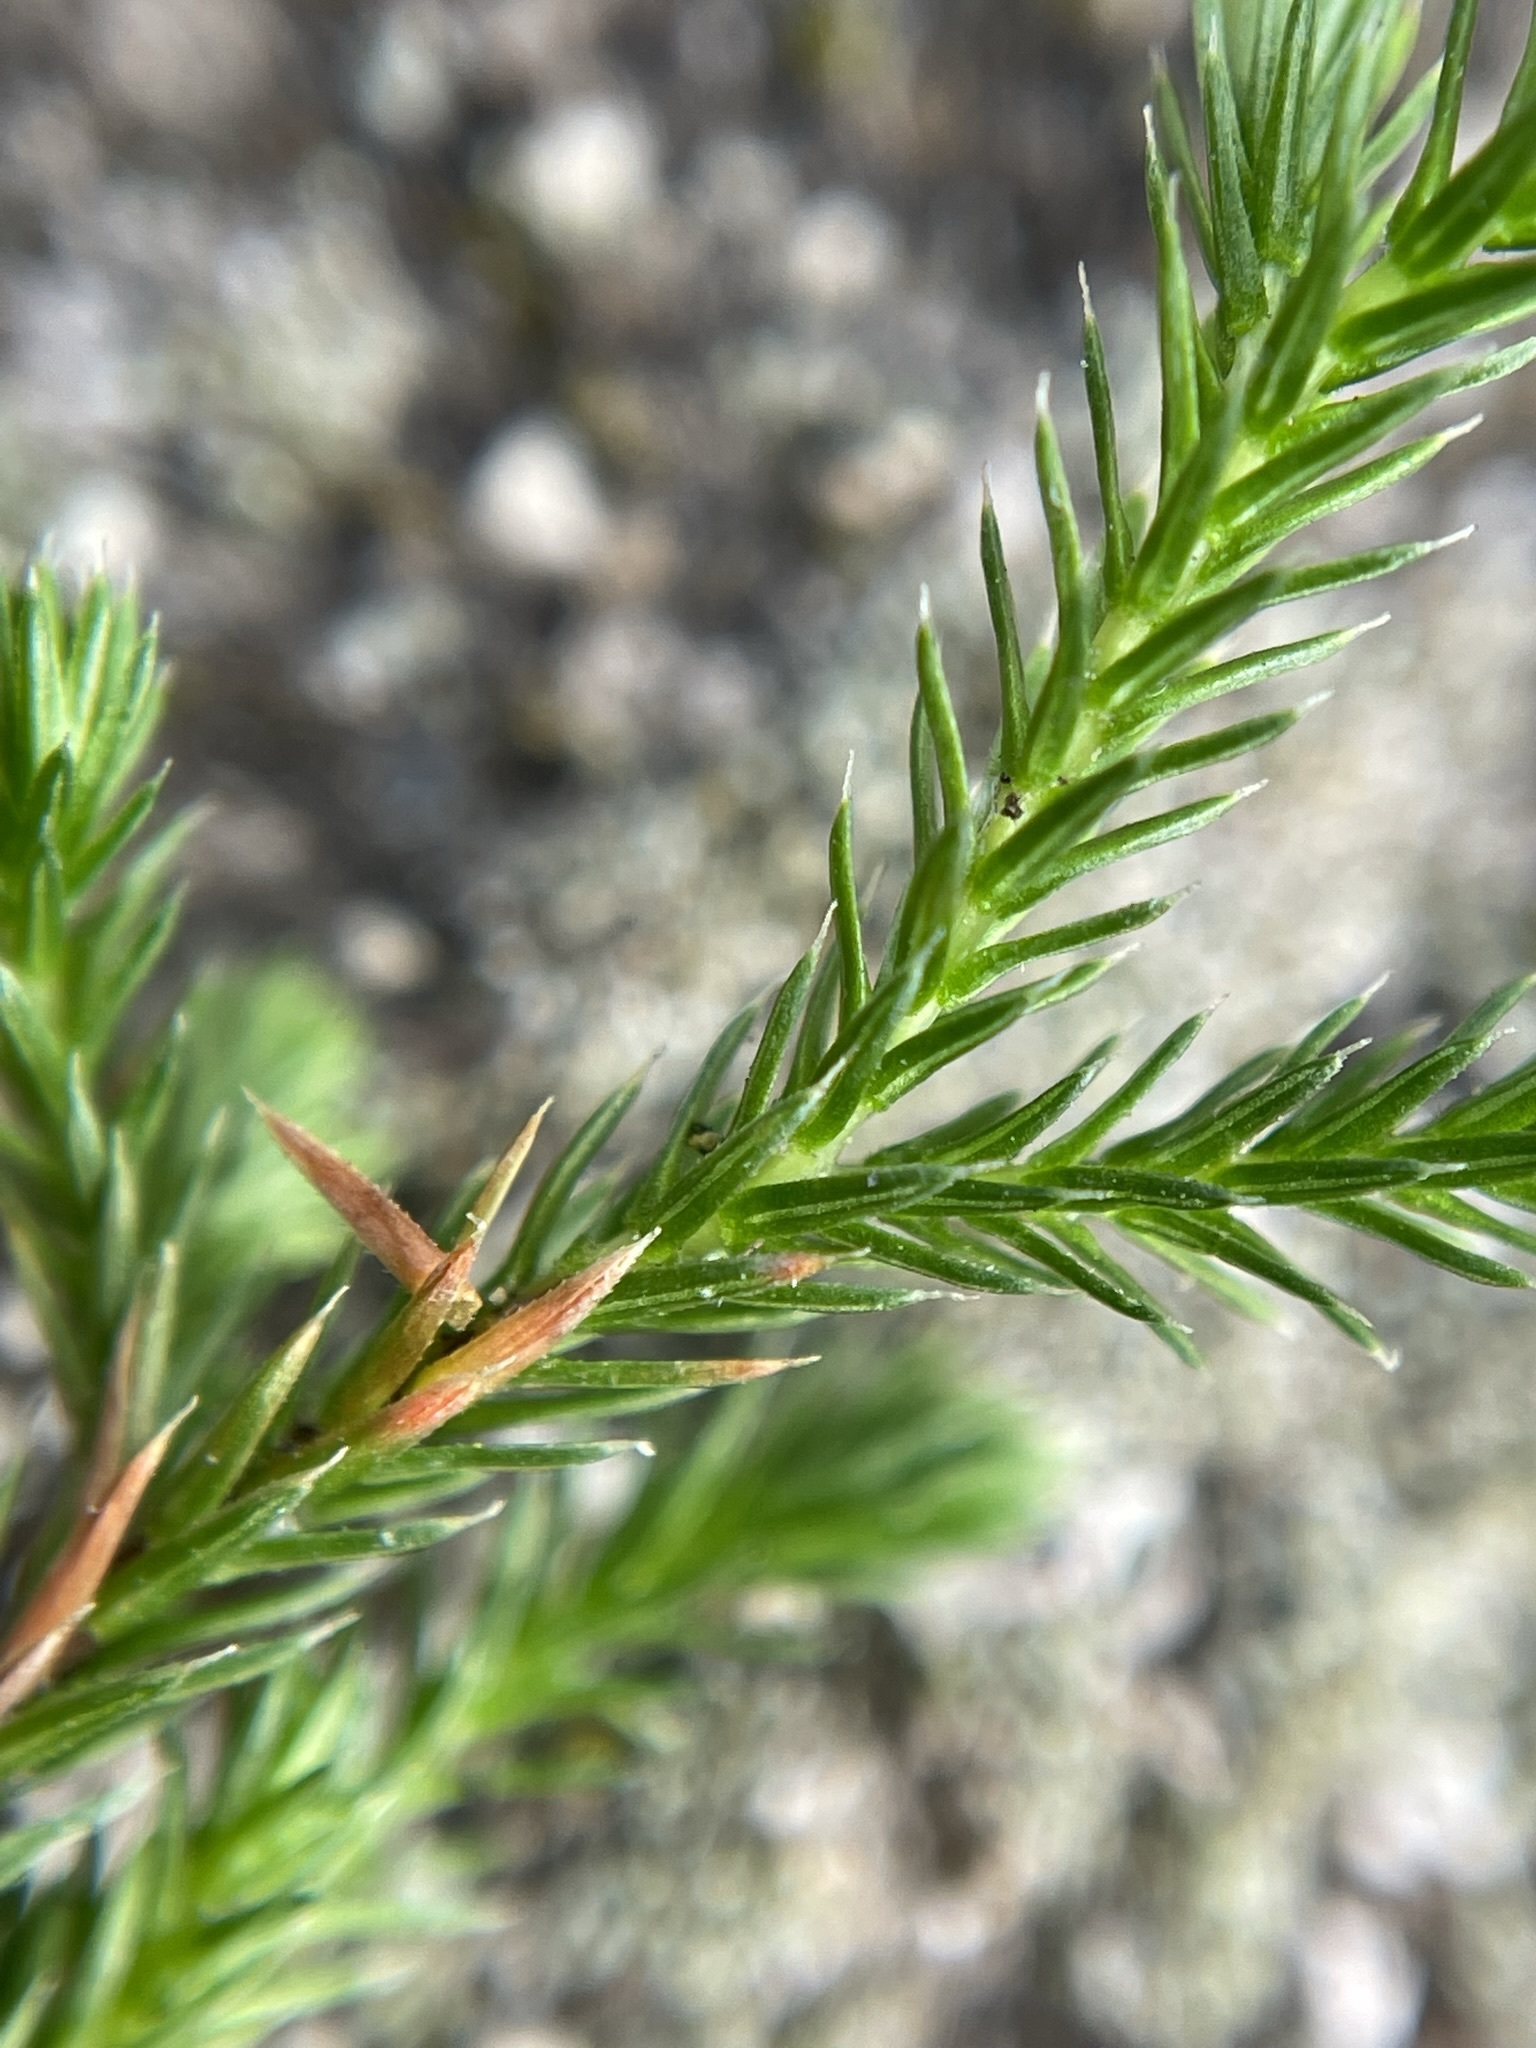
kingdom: Plantae
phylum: Tracheophyta
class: Lycopodiopsida
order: Selaginellales
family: Selaginellaceae
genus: Selaginella
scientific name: Selaginella bigelovii
